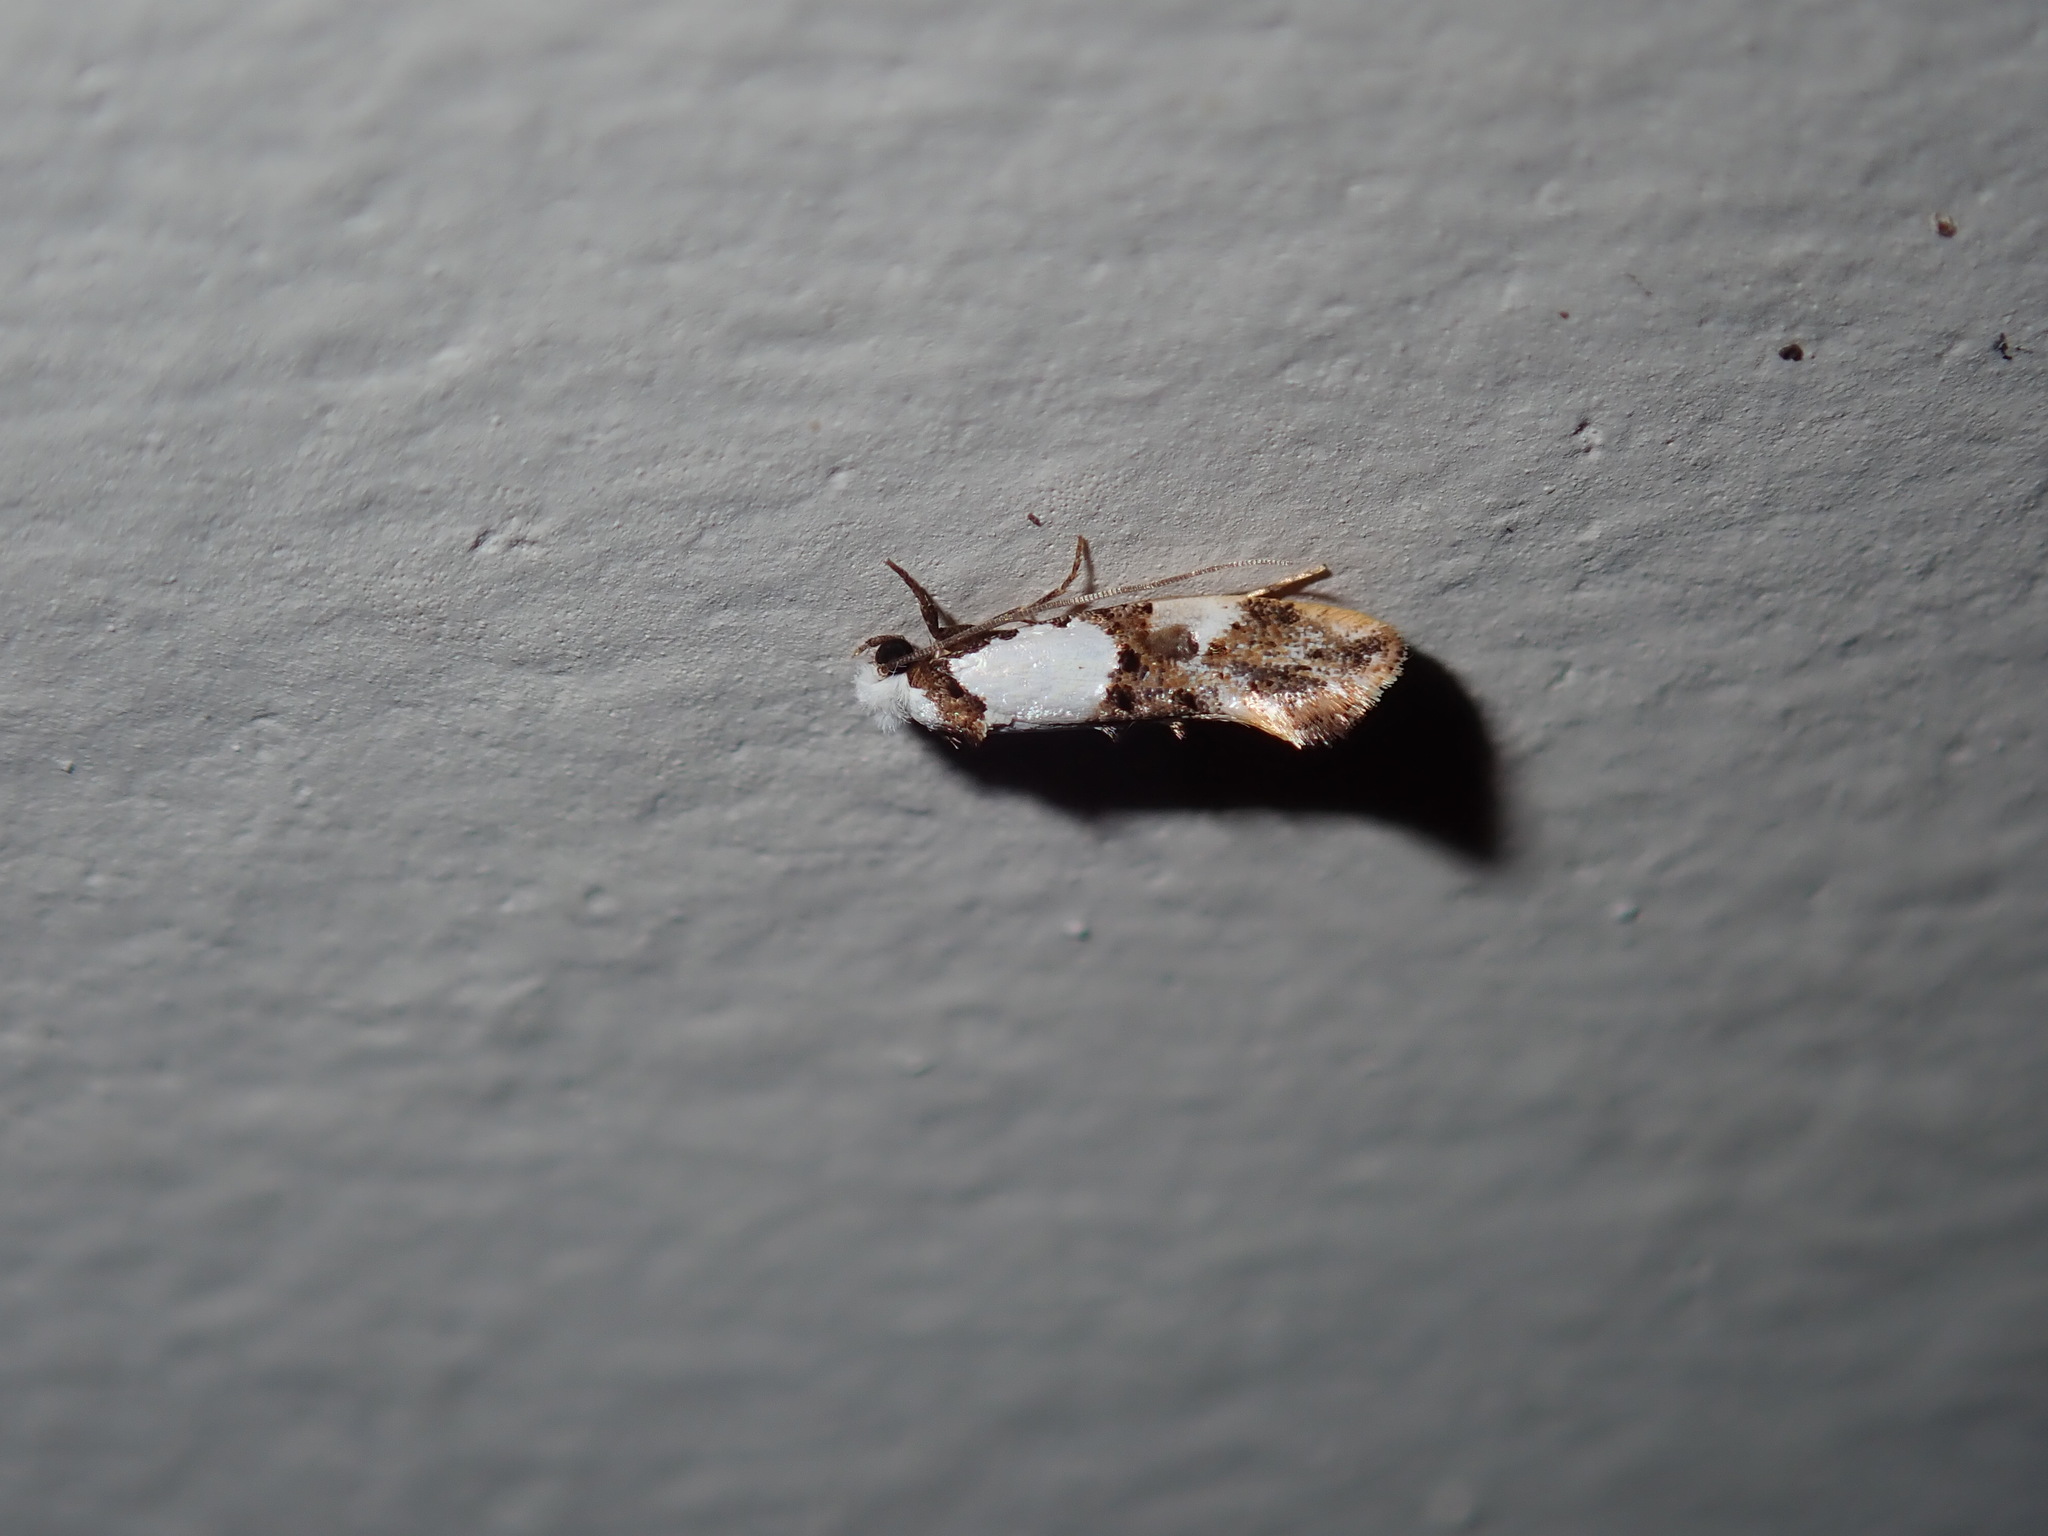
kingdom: Animalia
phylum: Arthropoda
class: Insecta
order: Lepidoptera
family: Tineidae
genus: Monopis
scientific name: Monopis meliorella
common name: Blotched monopis moth
